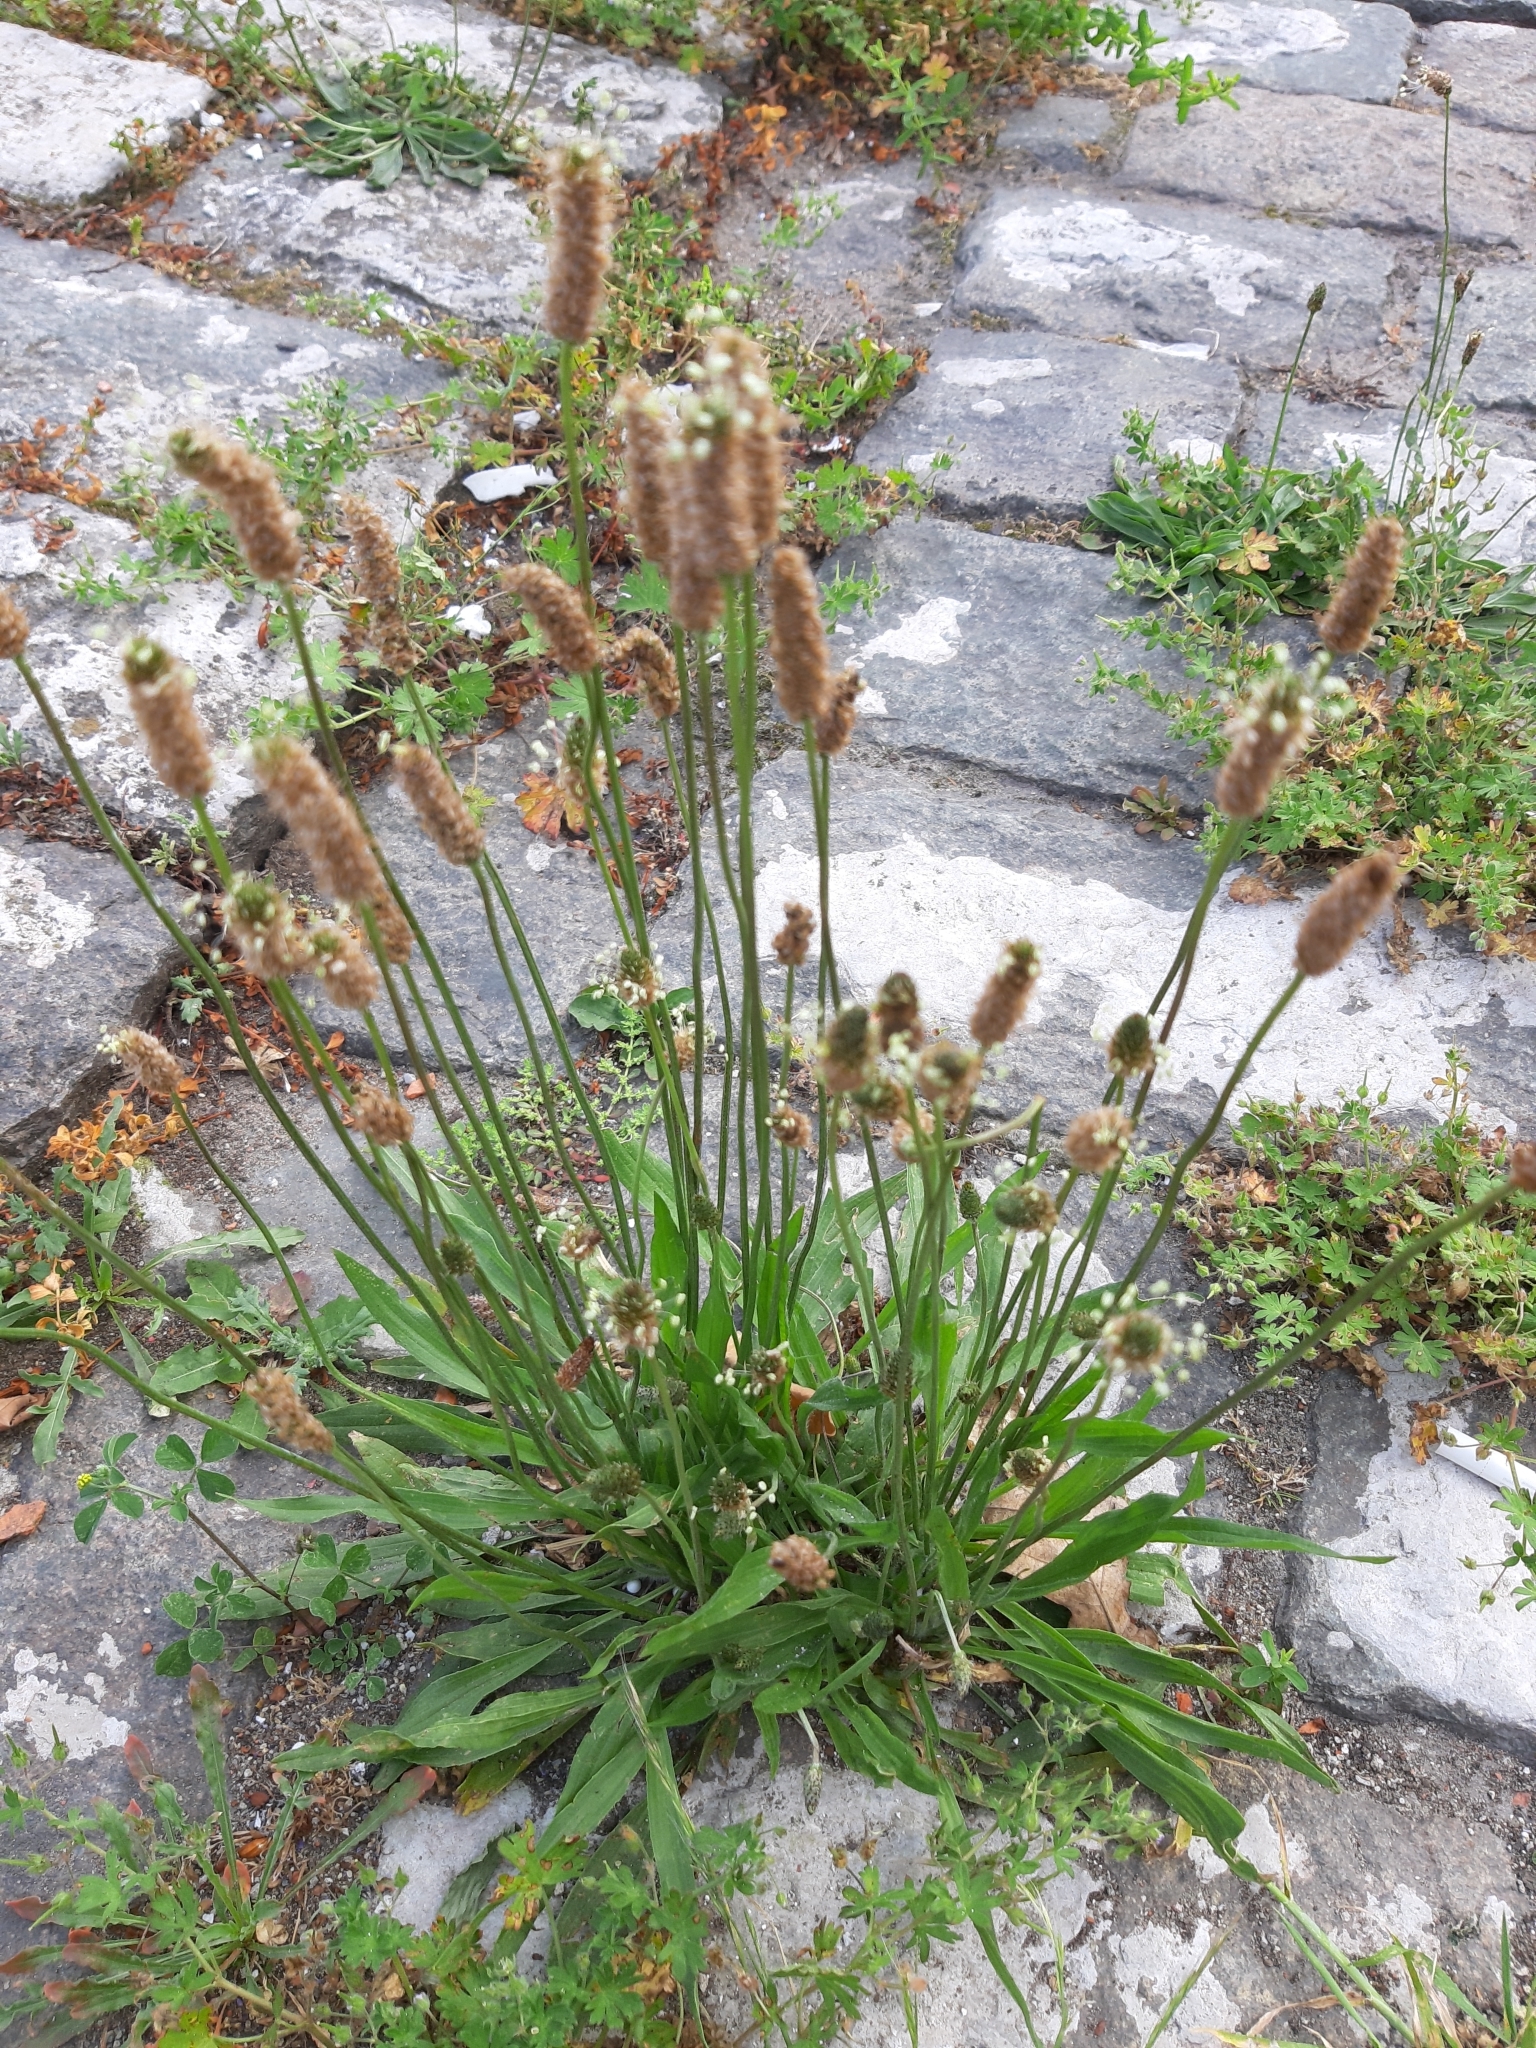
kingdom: Plantae
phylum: Tracheophyta
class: Magnoliopsida
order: Lamiales
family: Plantaginaceae
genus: Plantago
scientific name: Plantago lanceolata
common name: Ribwort plantain
